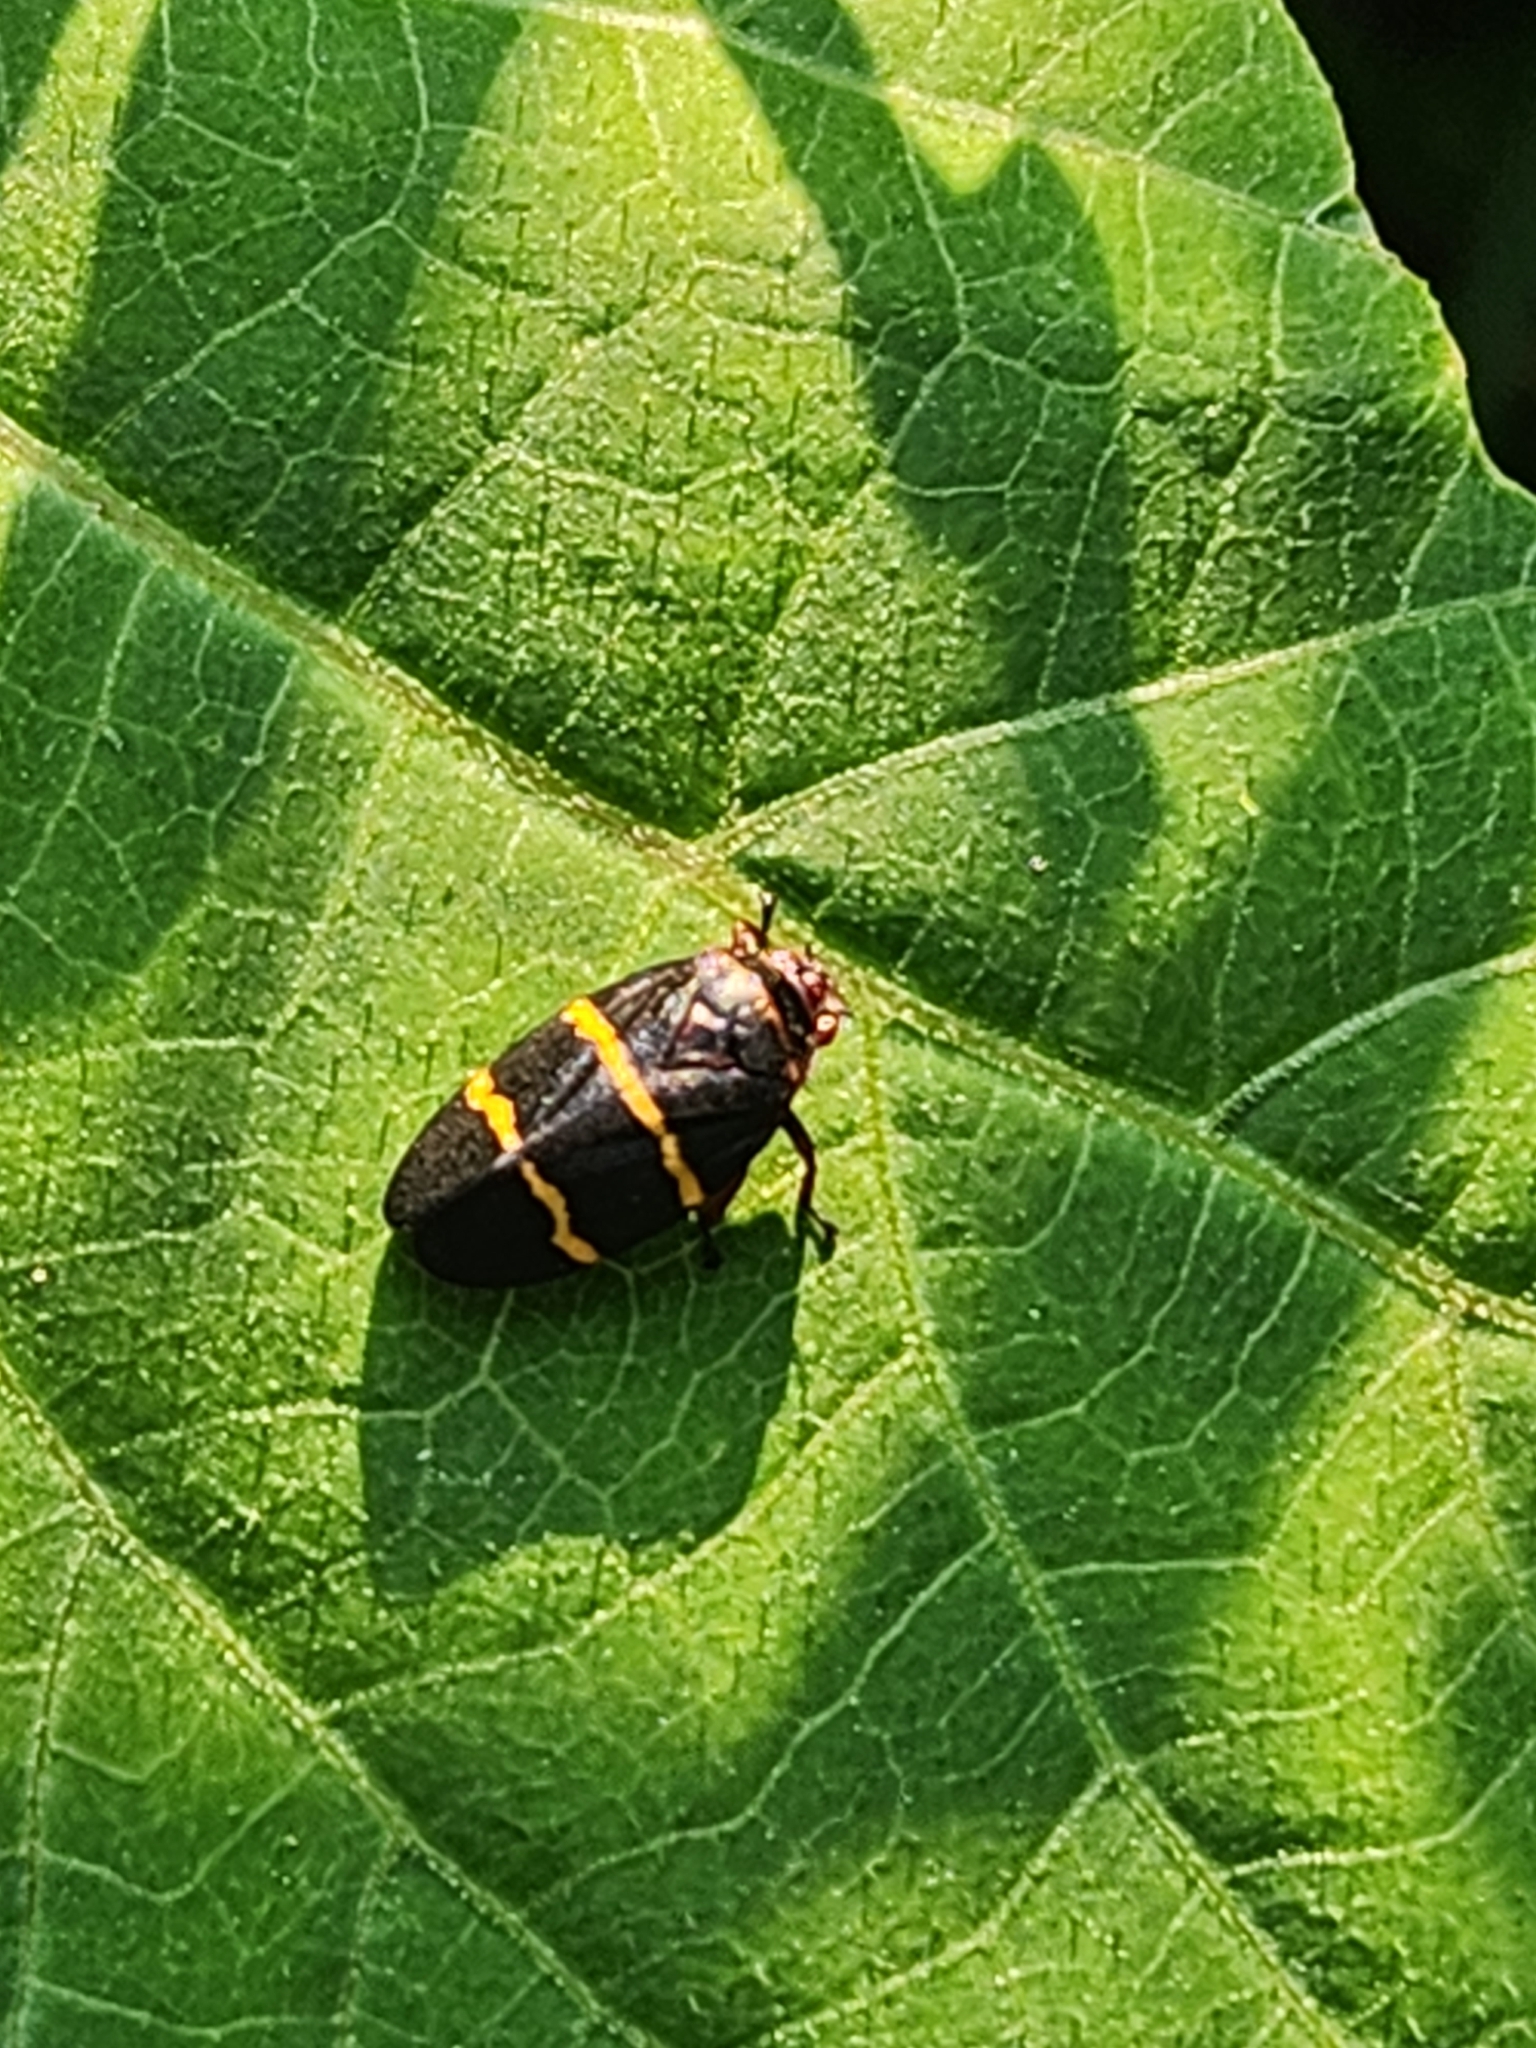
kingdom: Animalia
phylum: Arthropoda
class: Insecta
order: Hemiptera
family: Cercopidae
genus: Prosapia
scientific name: Prosapia bicincta
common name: Twolined spittlebug
